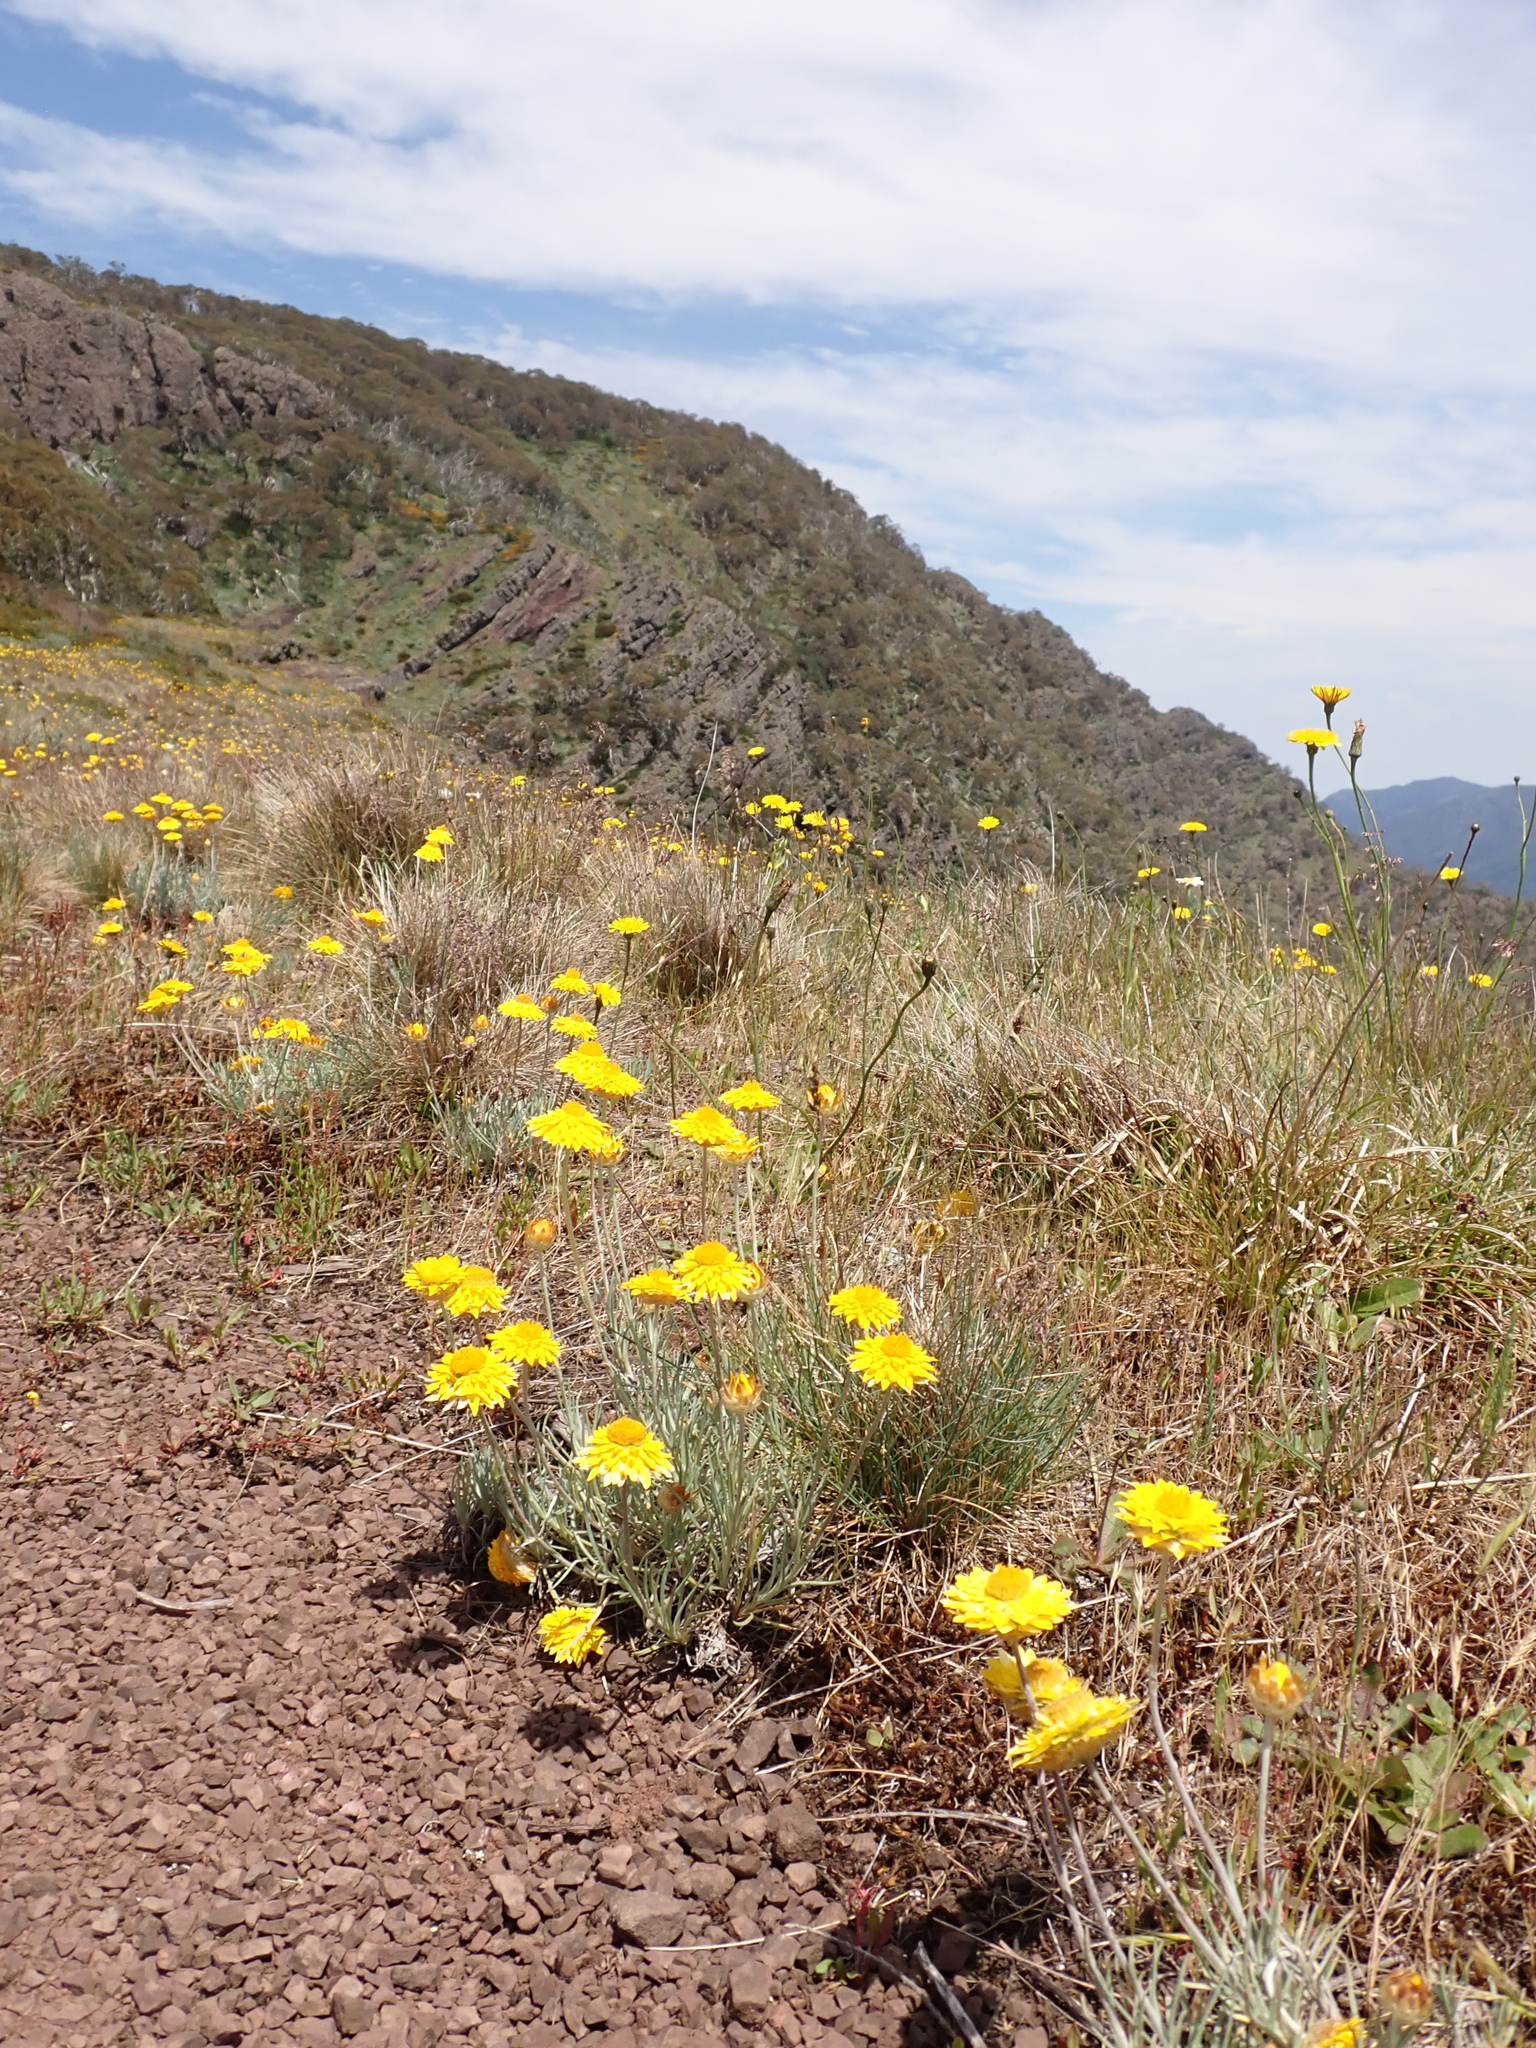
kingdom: Plantae
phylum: Tracheophyta
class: Magnoliopsida
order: Asterales
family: Asteraceae
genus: Leucochrysum
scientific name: Leucochrysum albicans
